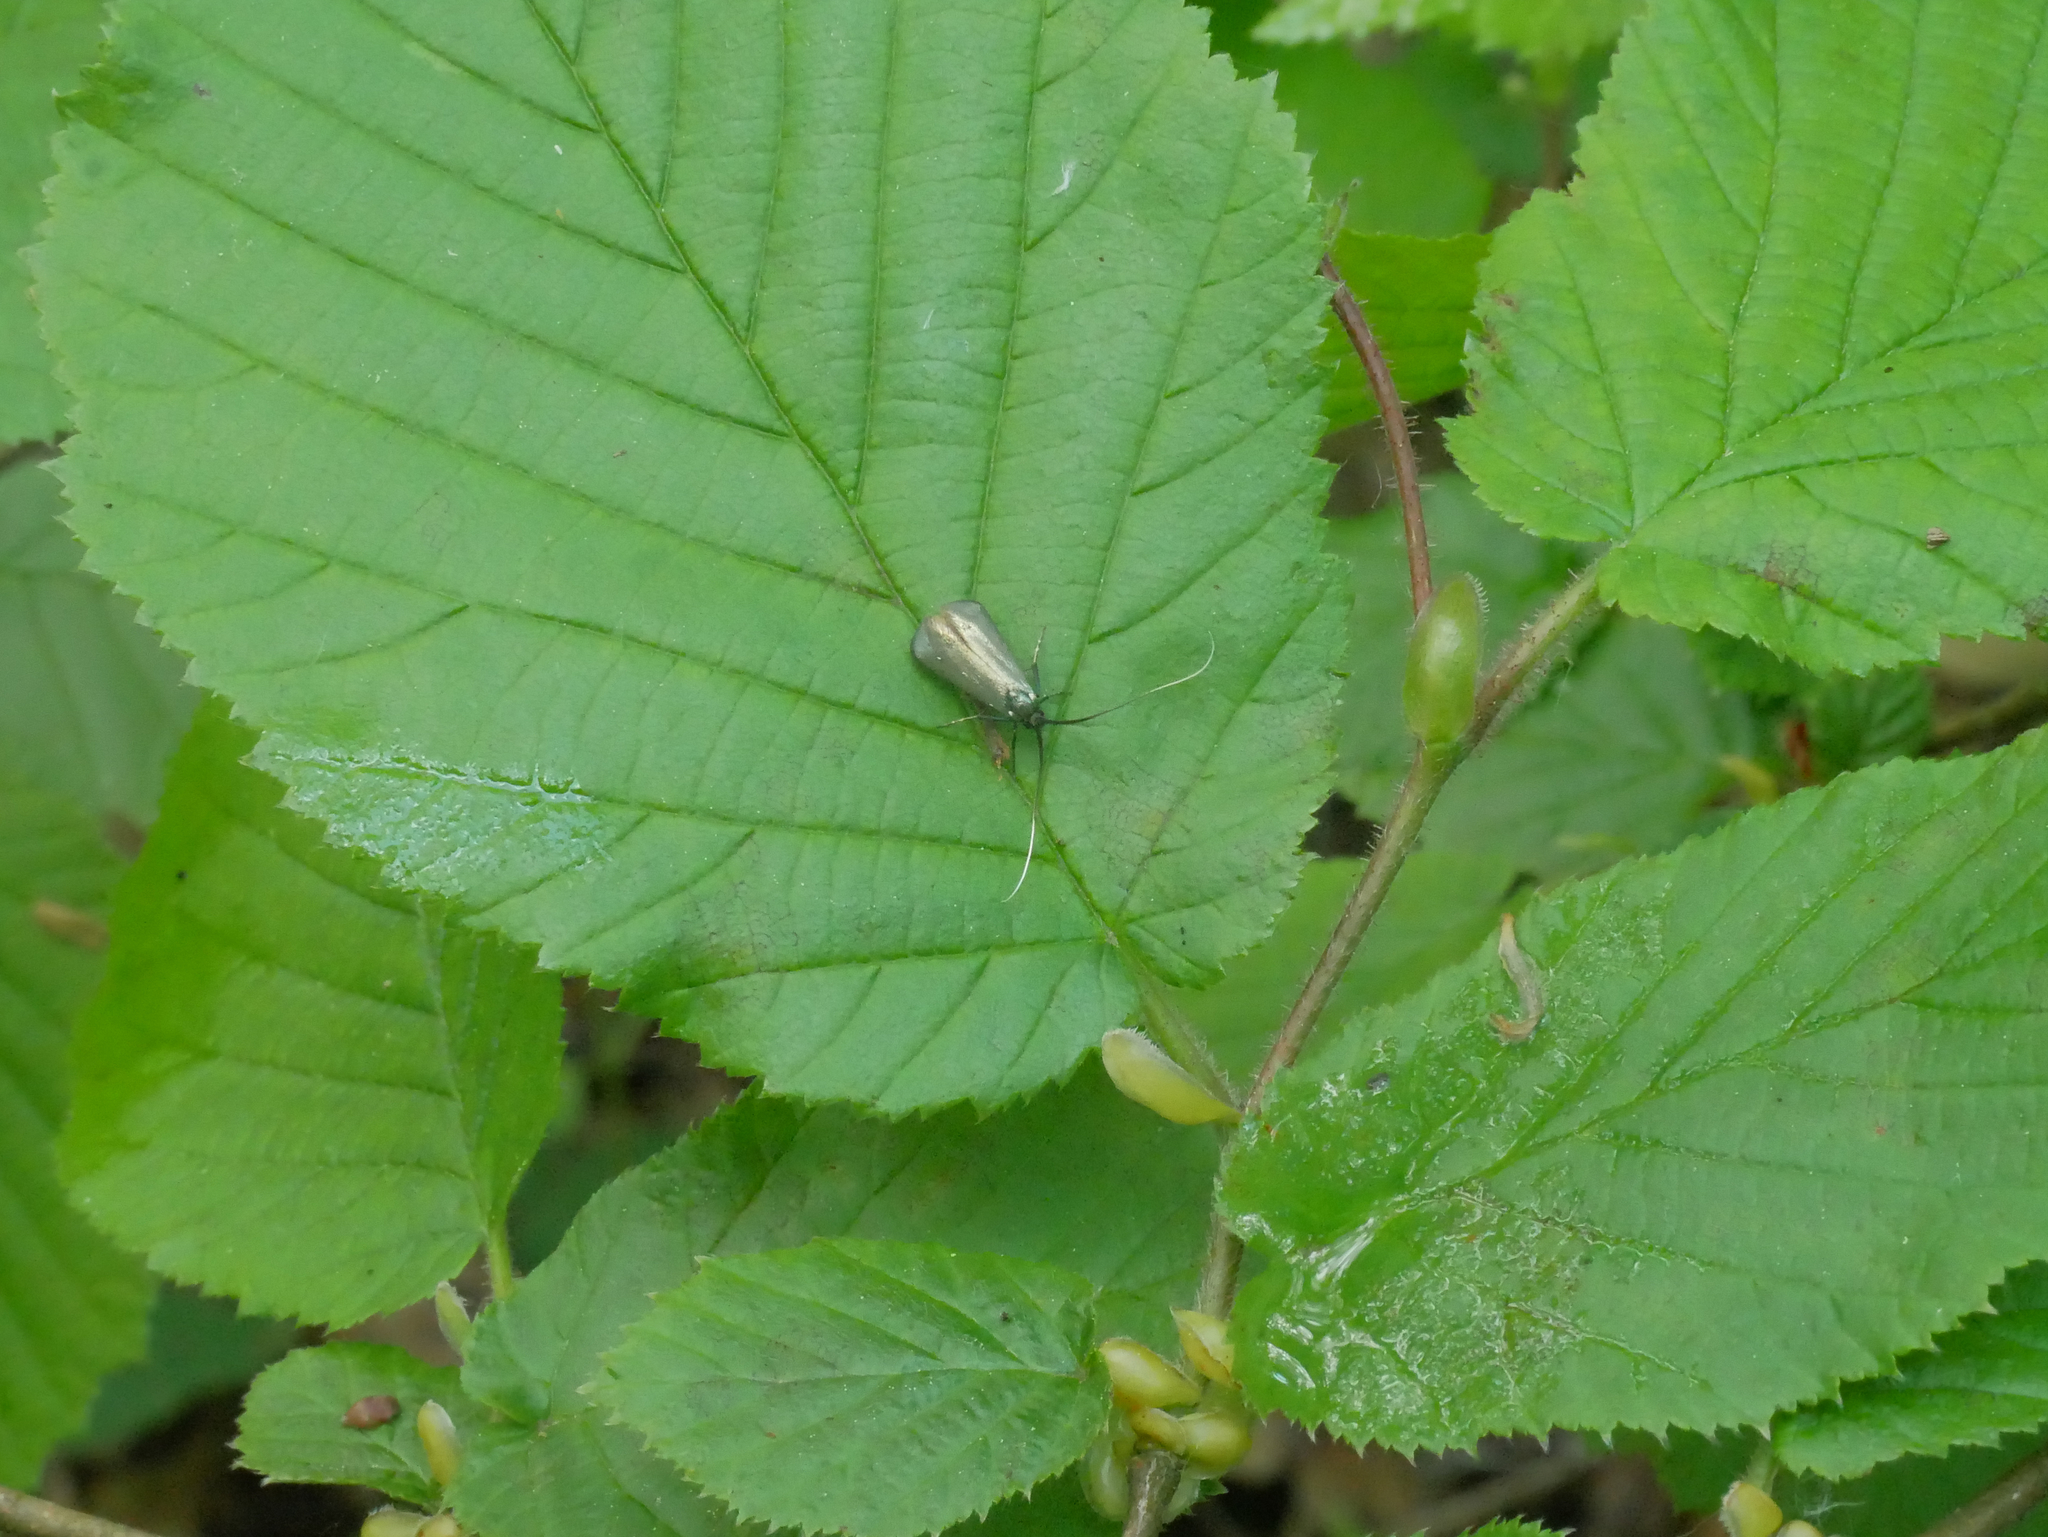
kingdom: Animalia
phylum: Arthropoda
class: Insecta
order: Lepidoptera
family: Adelidae
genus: Adela
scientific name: Adela viridella
